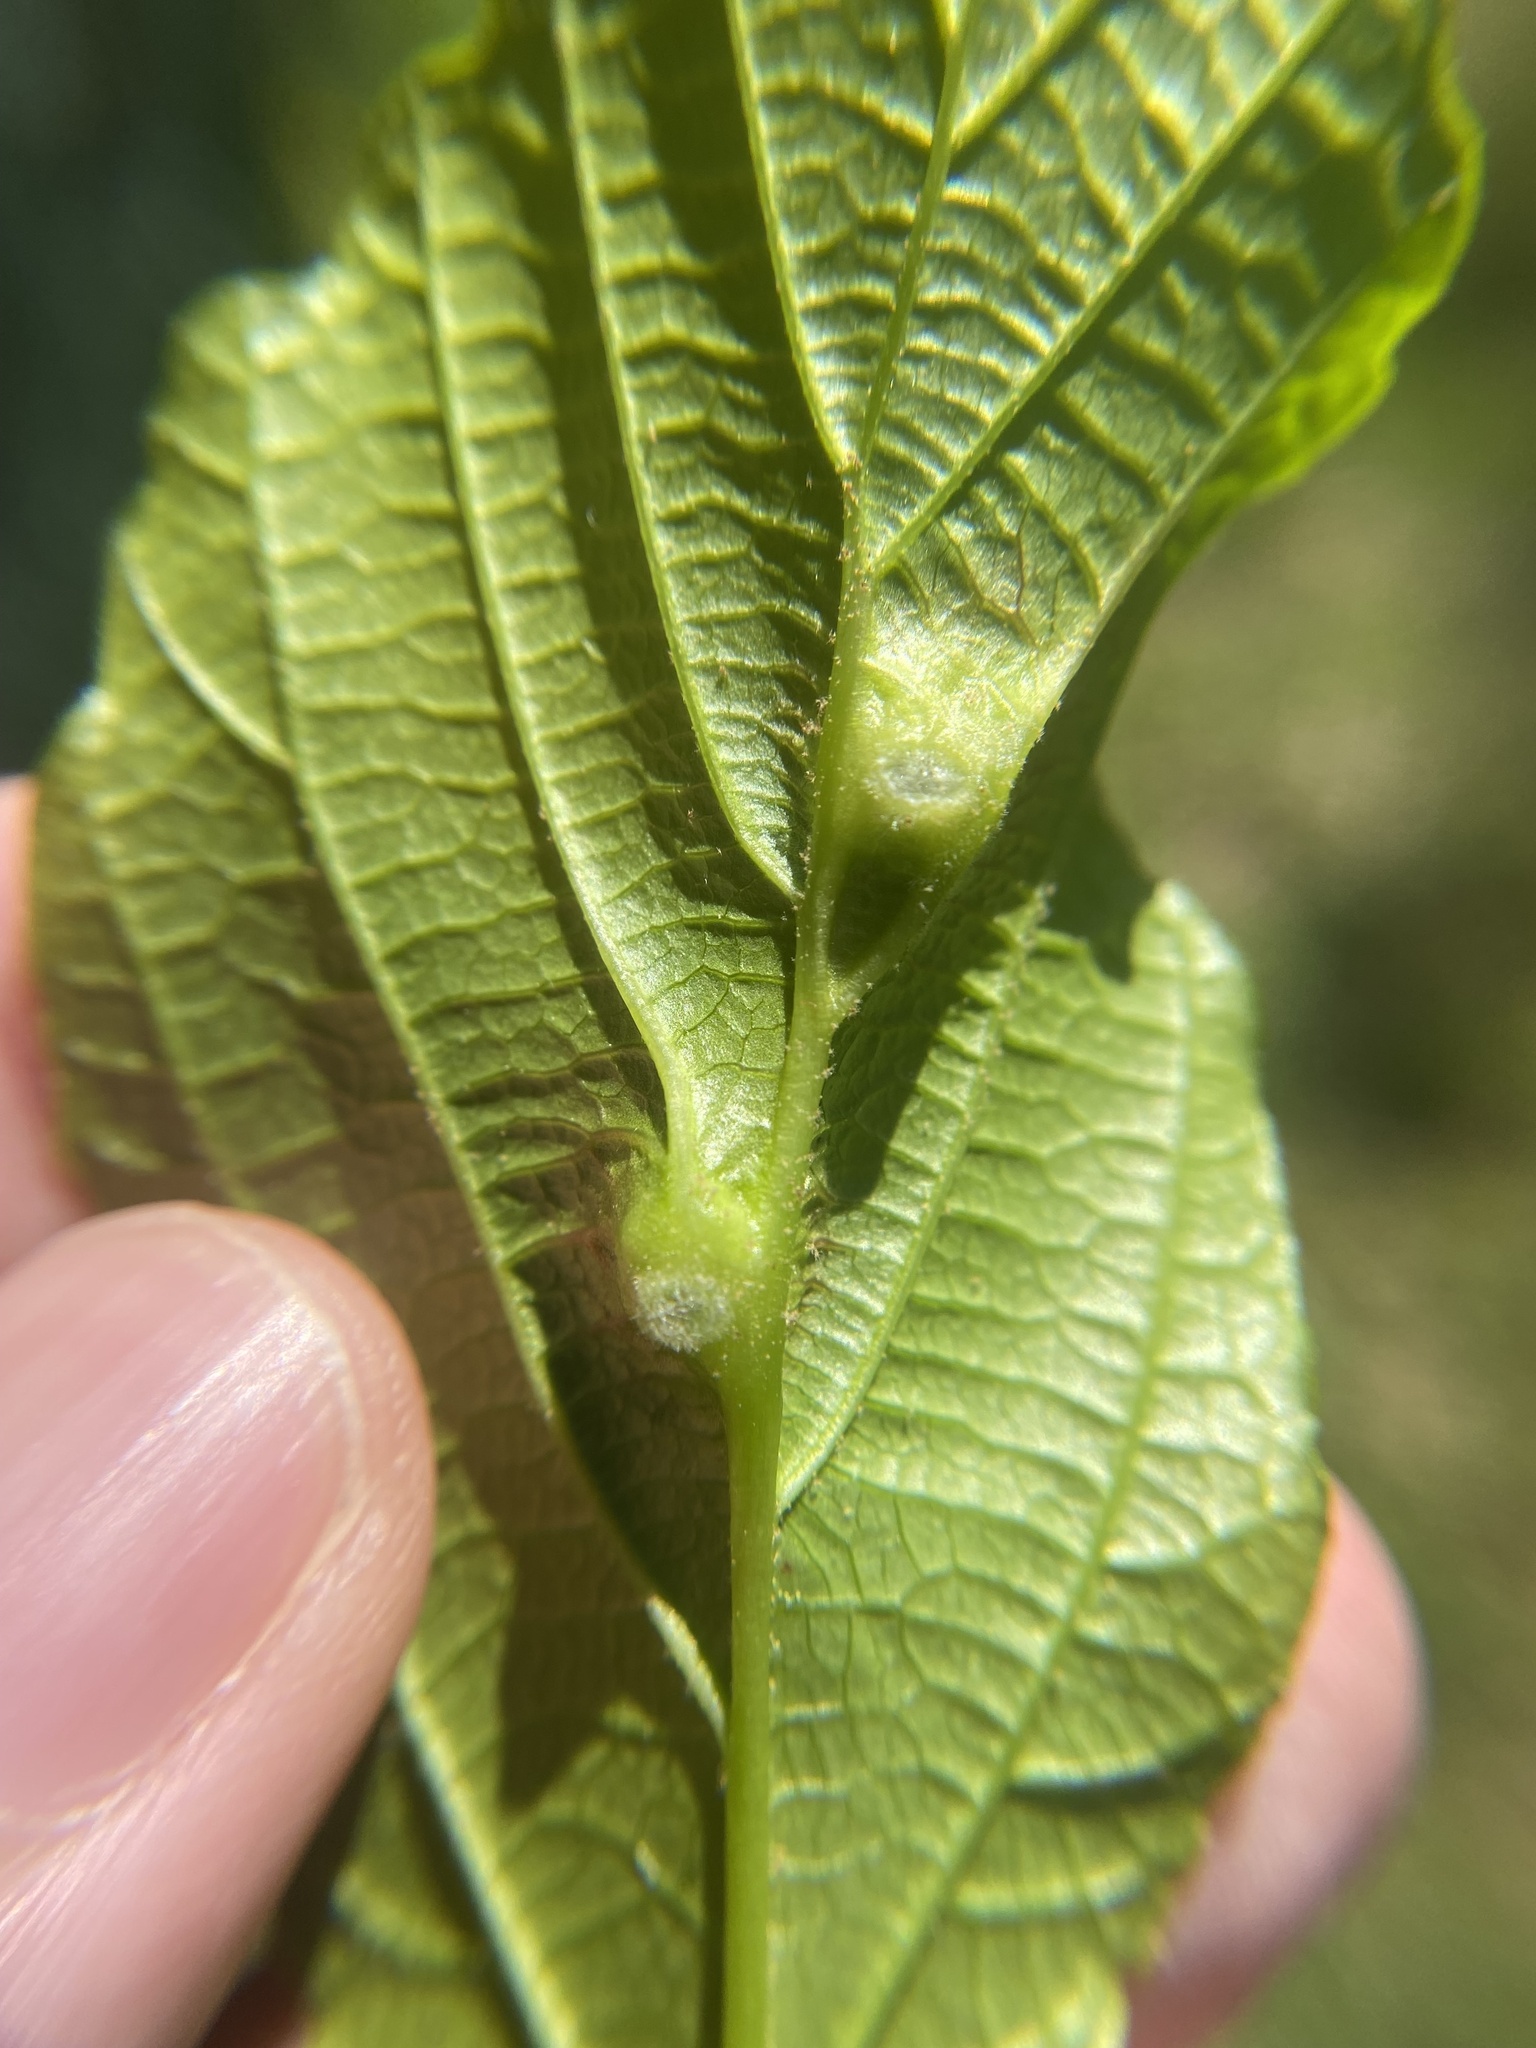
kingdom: Animalia
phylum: Arthropoda
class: Insecta
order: Hemiptera
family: Aphididae
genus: Hormaphis
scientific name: Hormaphis hamamelidis
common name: Witch-hazel cone gall aphid
